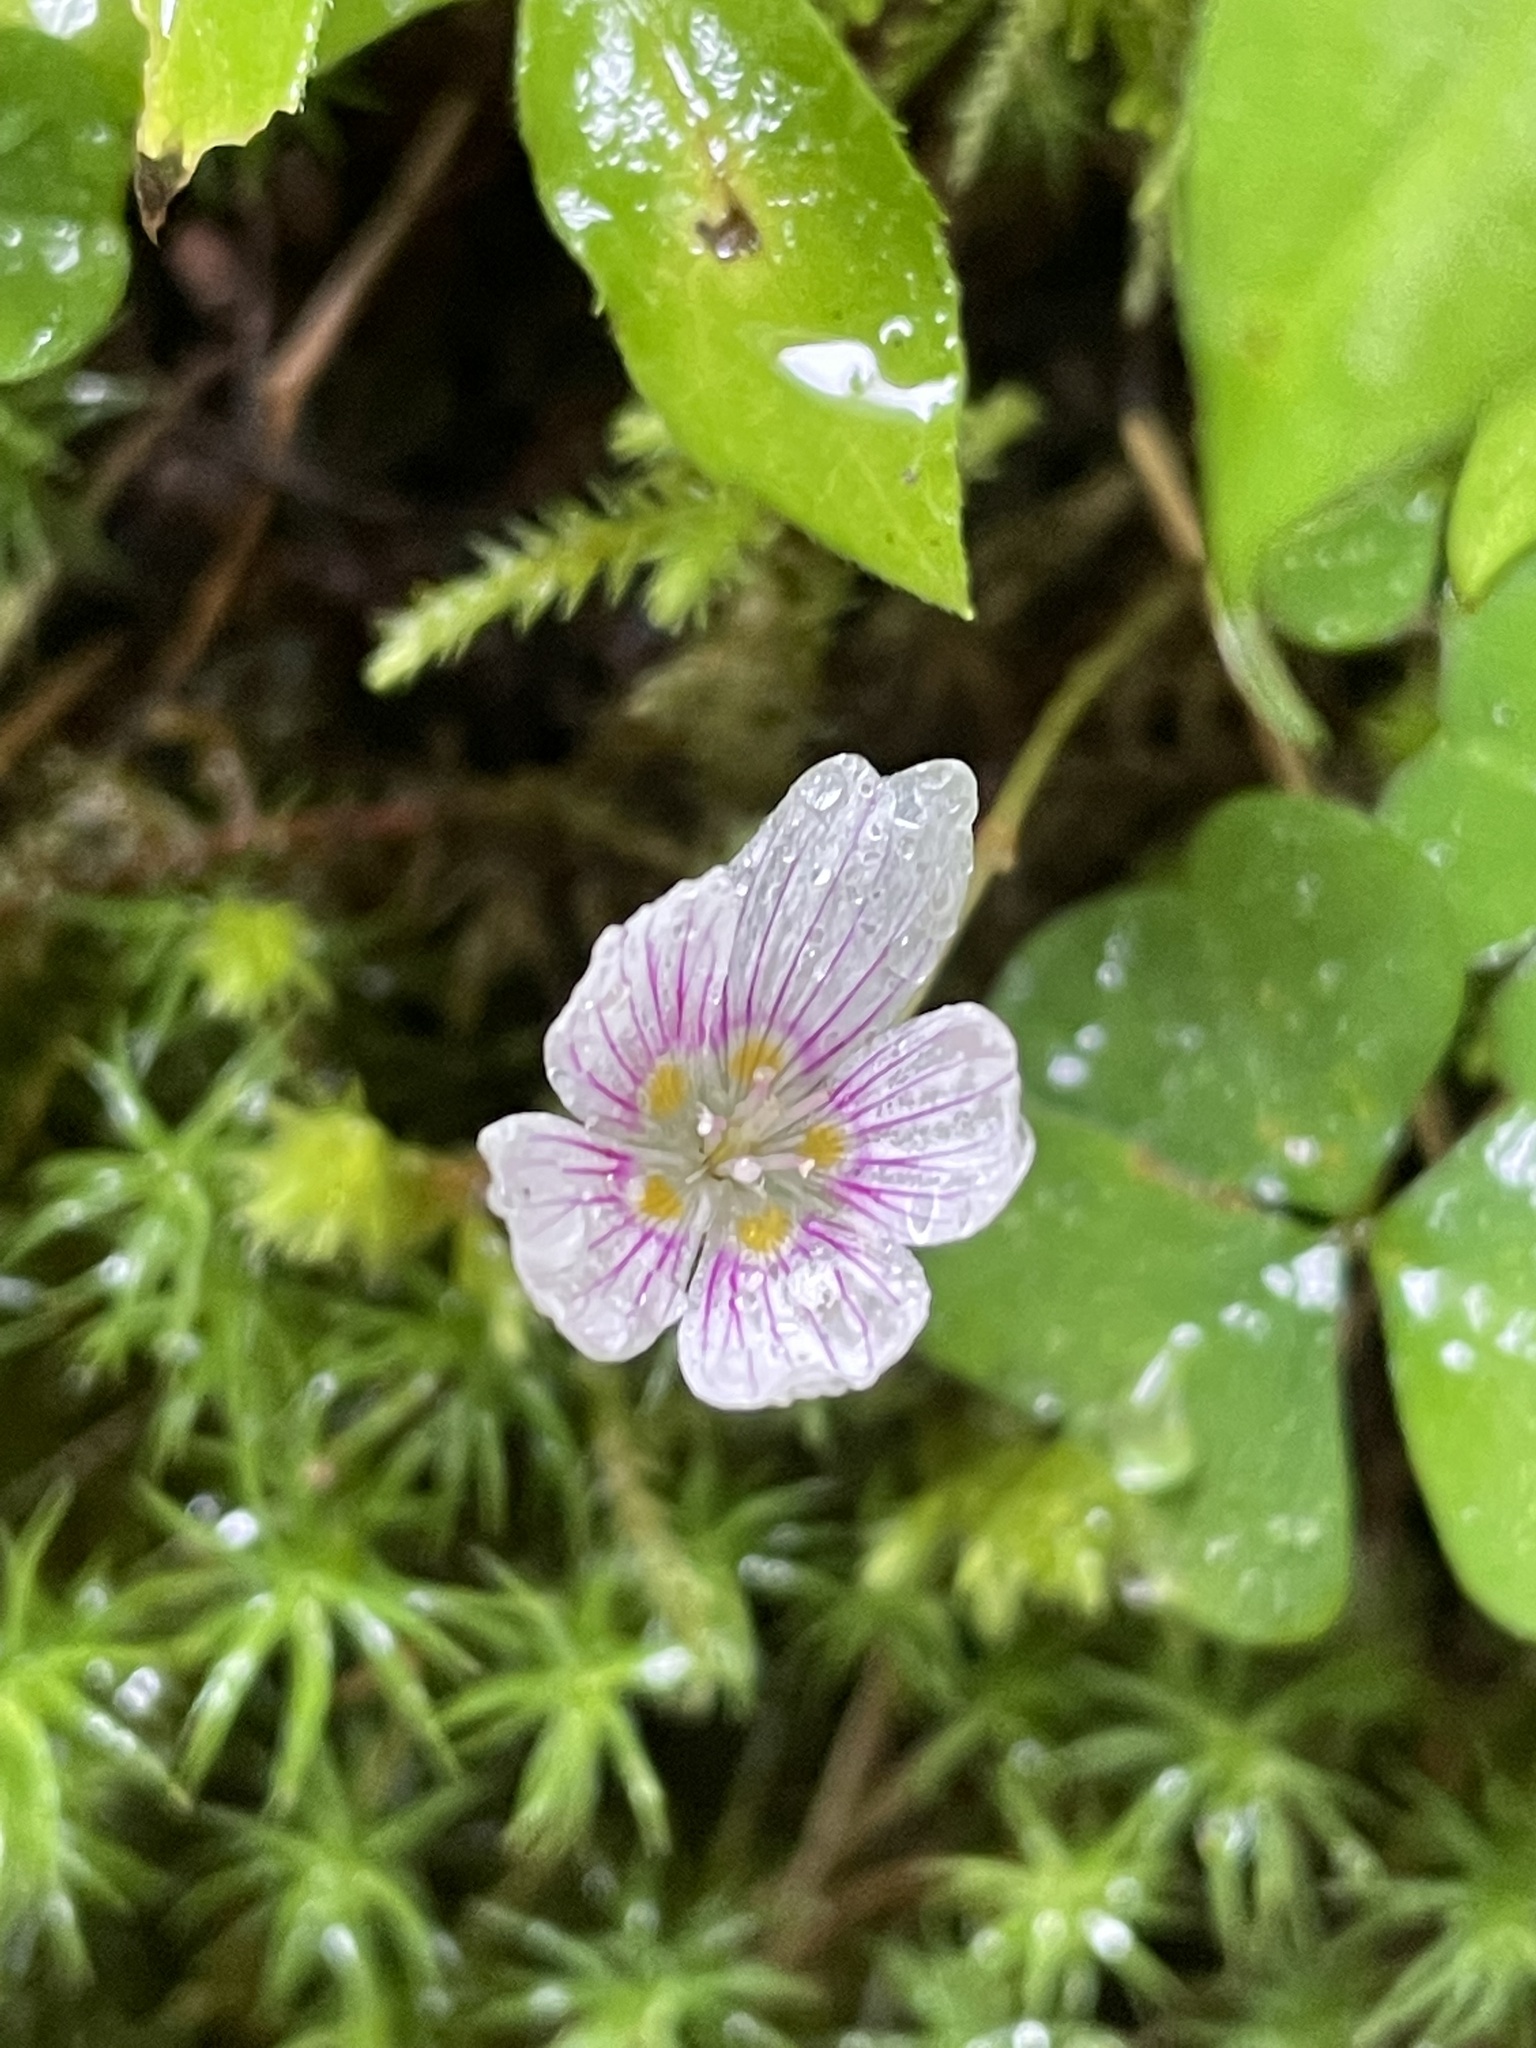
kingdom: Plantae
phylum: Tracheophyta
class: Magnoliopsida
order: Oxalidales
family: Oxalidaceae
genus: Oxalis
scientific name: Oxalis montana
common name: American wood-sorrel
